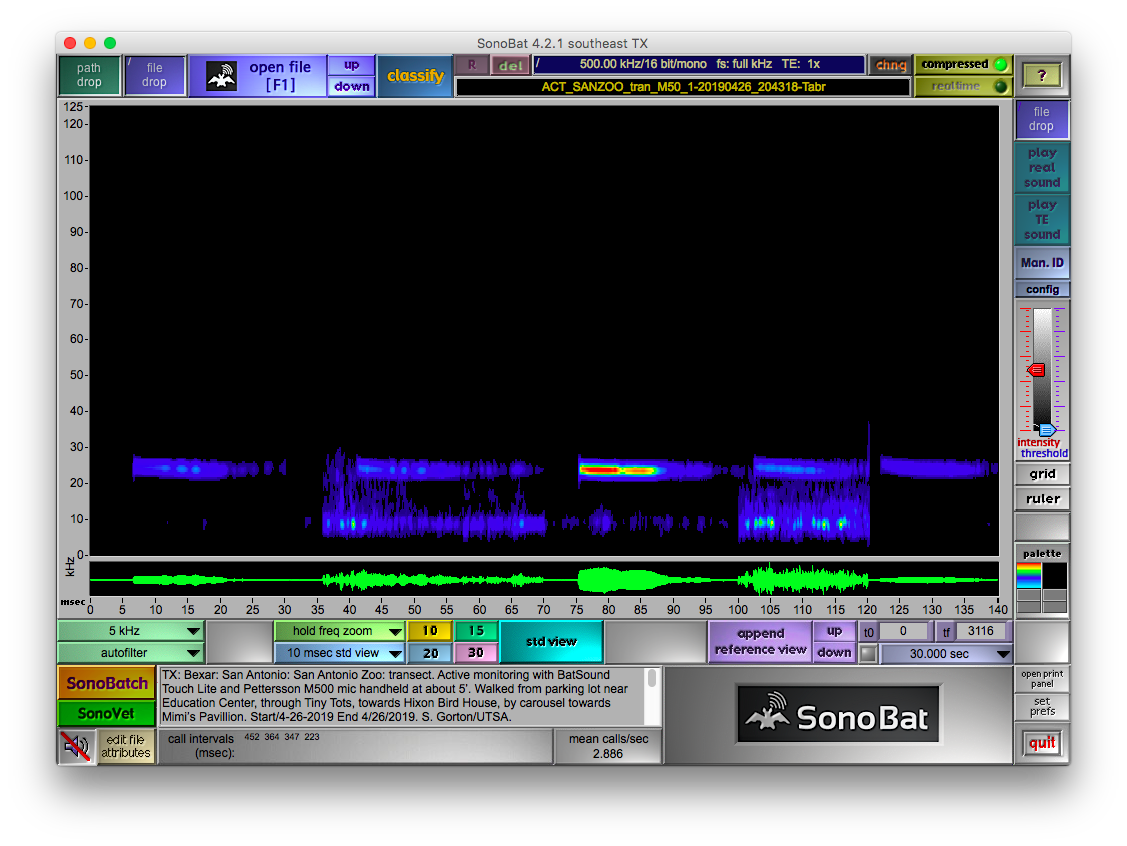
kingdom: Animalia
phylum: Chordata
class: Mammalia
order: Chiroptera
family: Molossidae
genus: Tadarida
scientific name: Tadarida brasiliensis
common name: Mexican free-tailed bat
